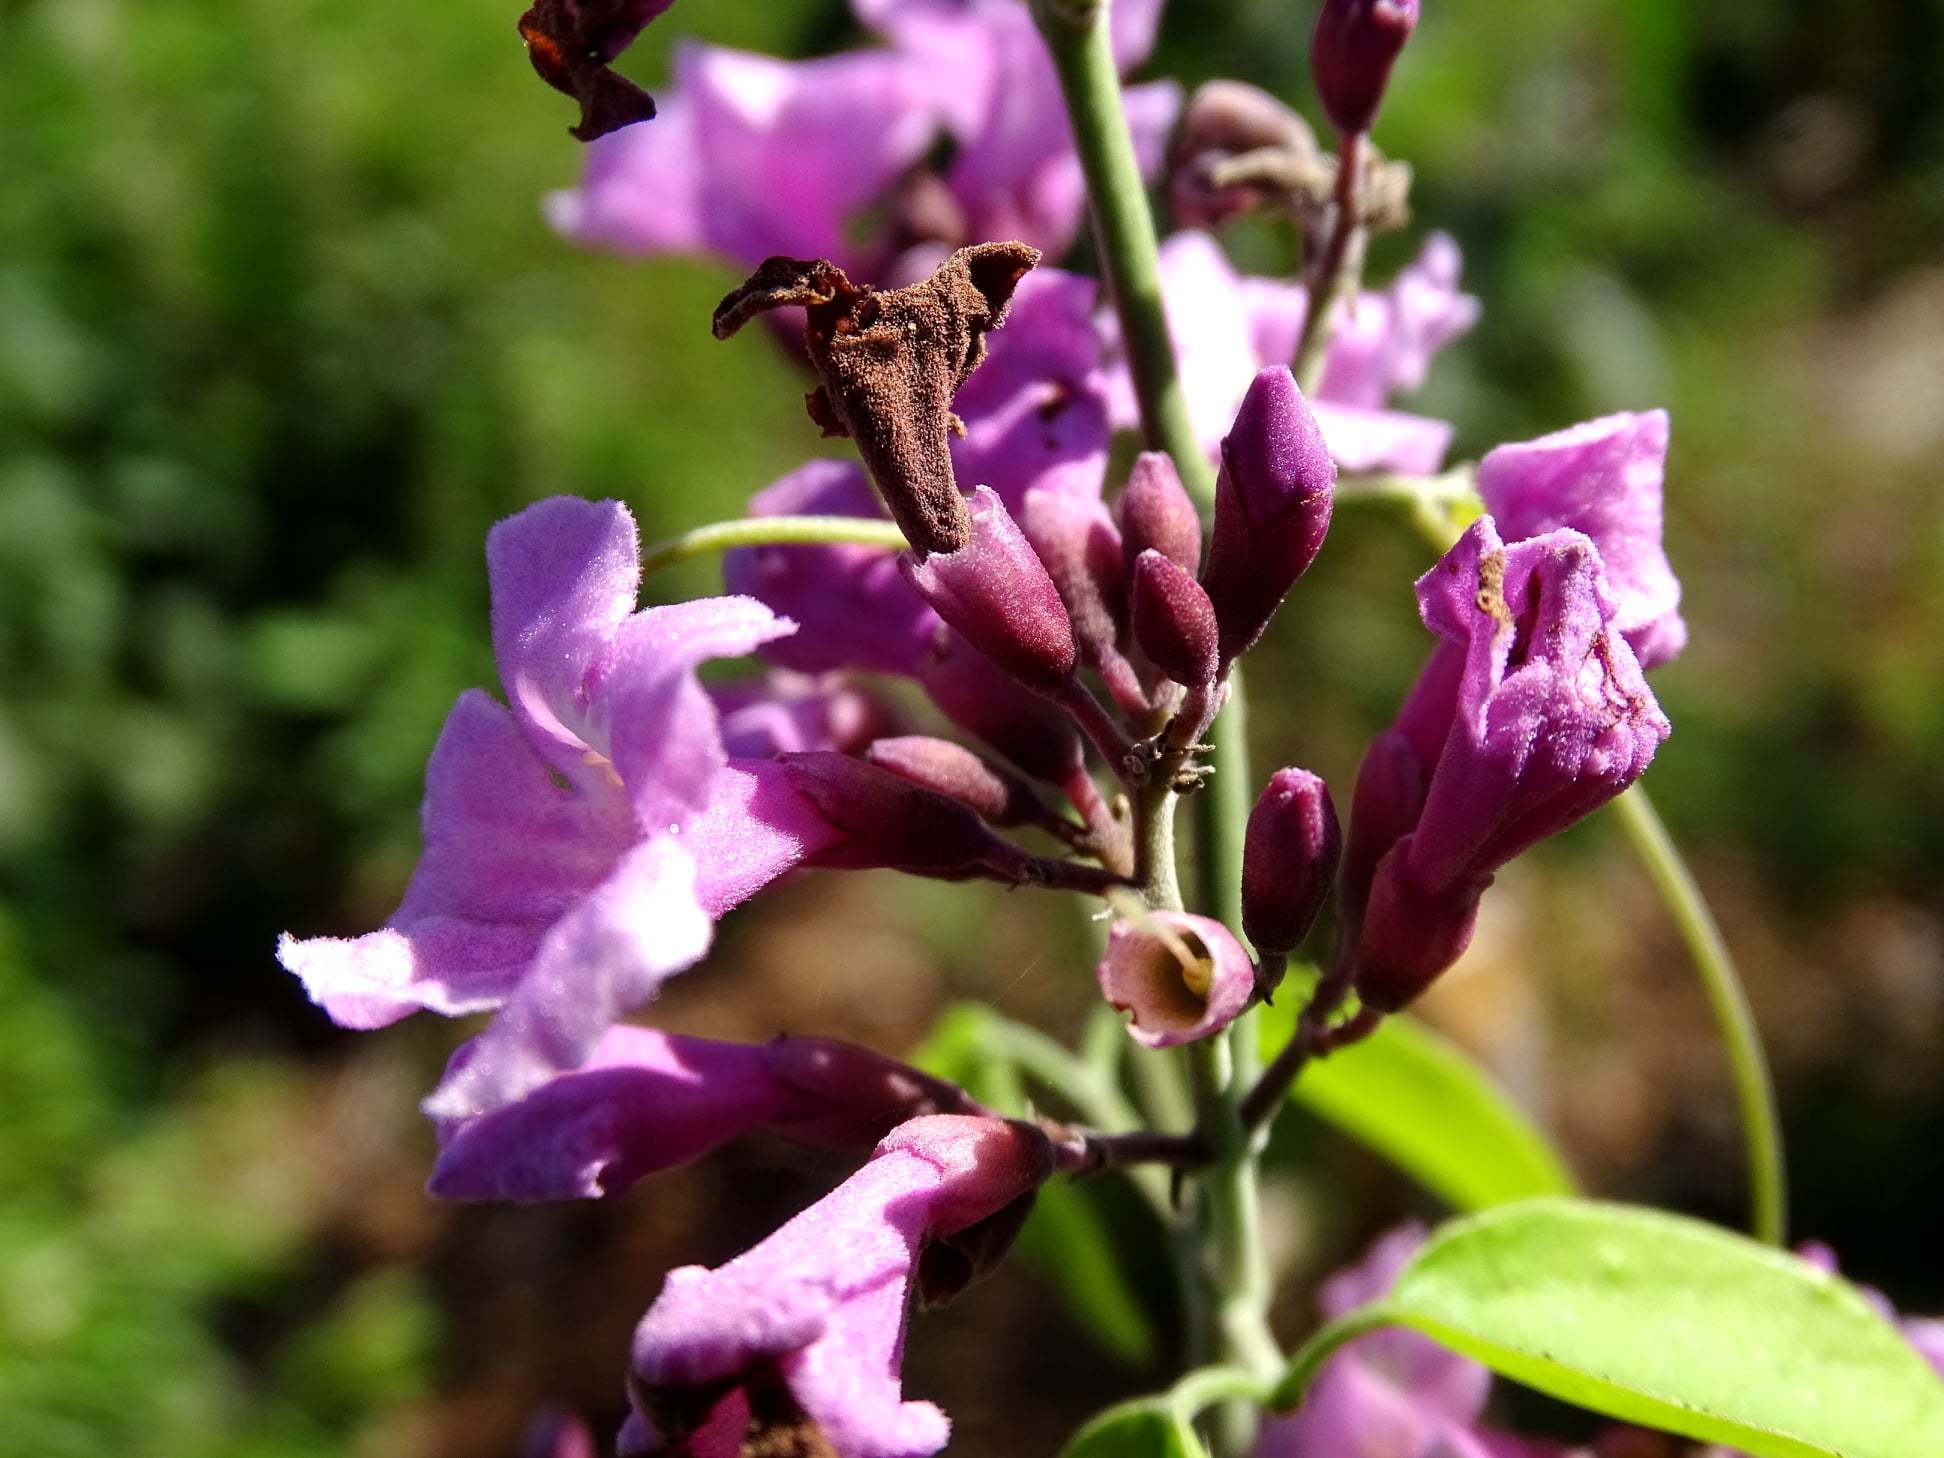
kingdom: Plantae
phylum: Tracheophyta
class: Magnoliopsida
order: Lamiales
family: Bignoniaceae
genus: Fridericia
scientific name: Fridericia floribunda
